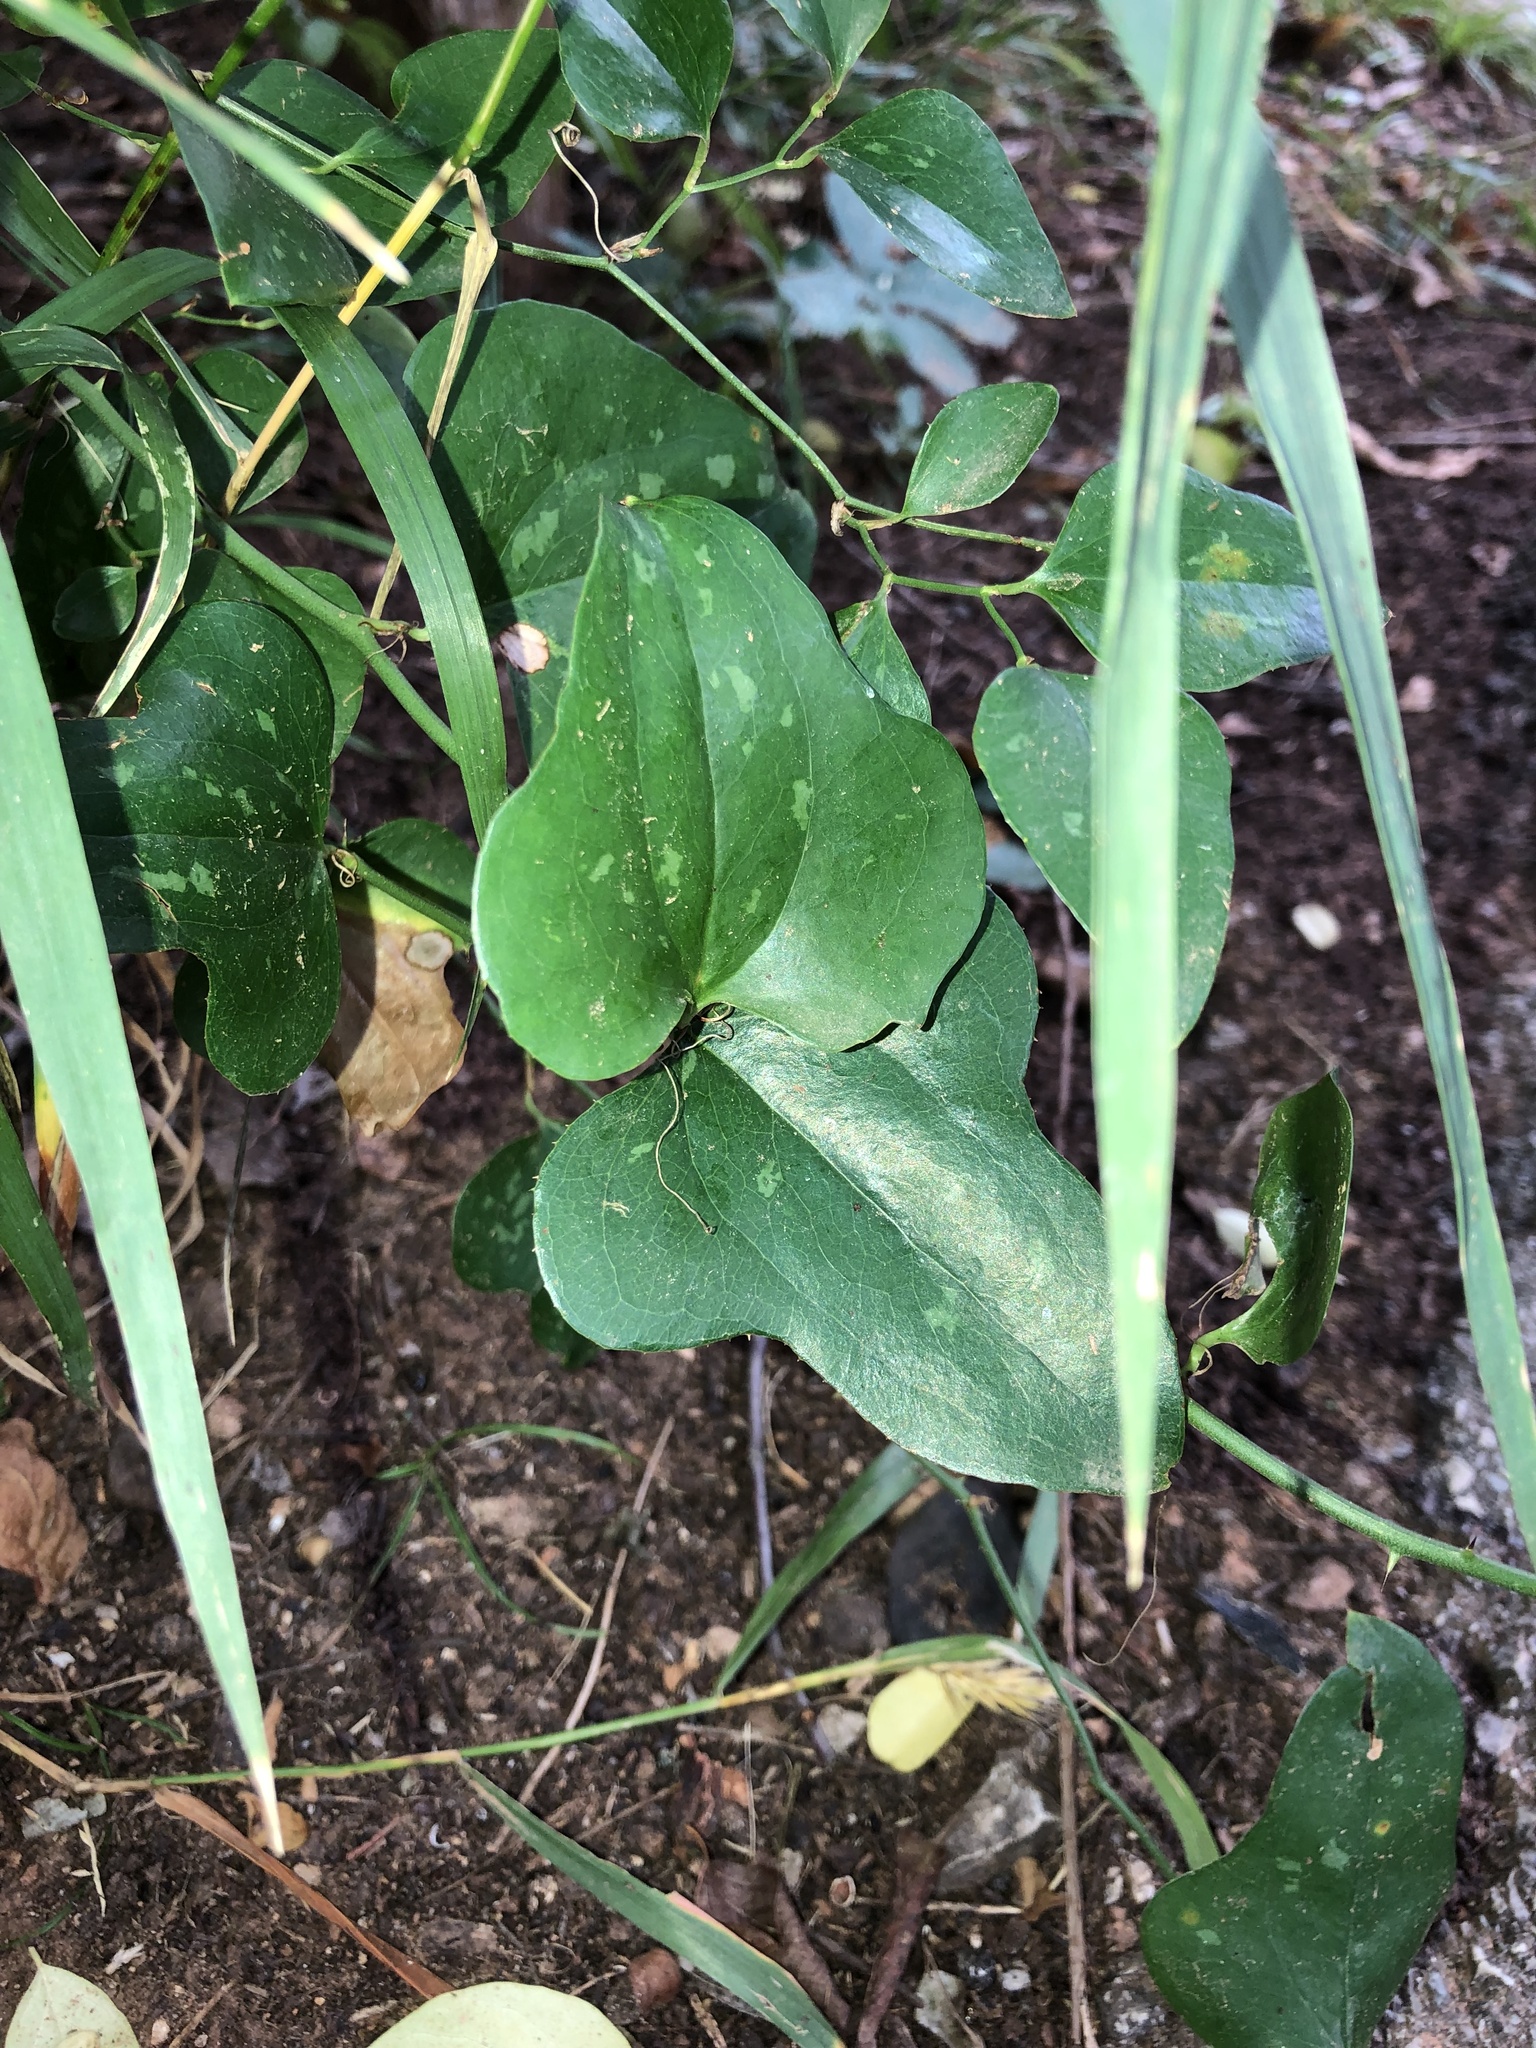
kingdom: Plantae
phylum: Tracheophyta
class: Liliopsida
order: Liliales
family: Smilacaceae
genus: Smilax
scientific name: Smilax bona-nox
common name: Catbrier
